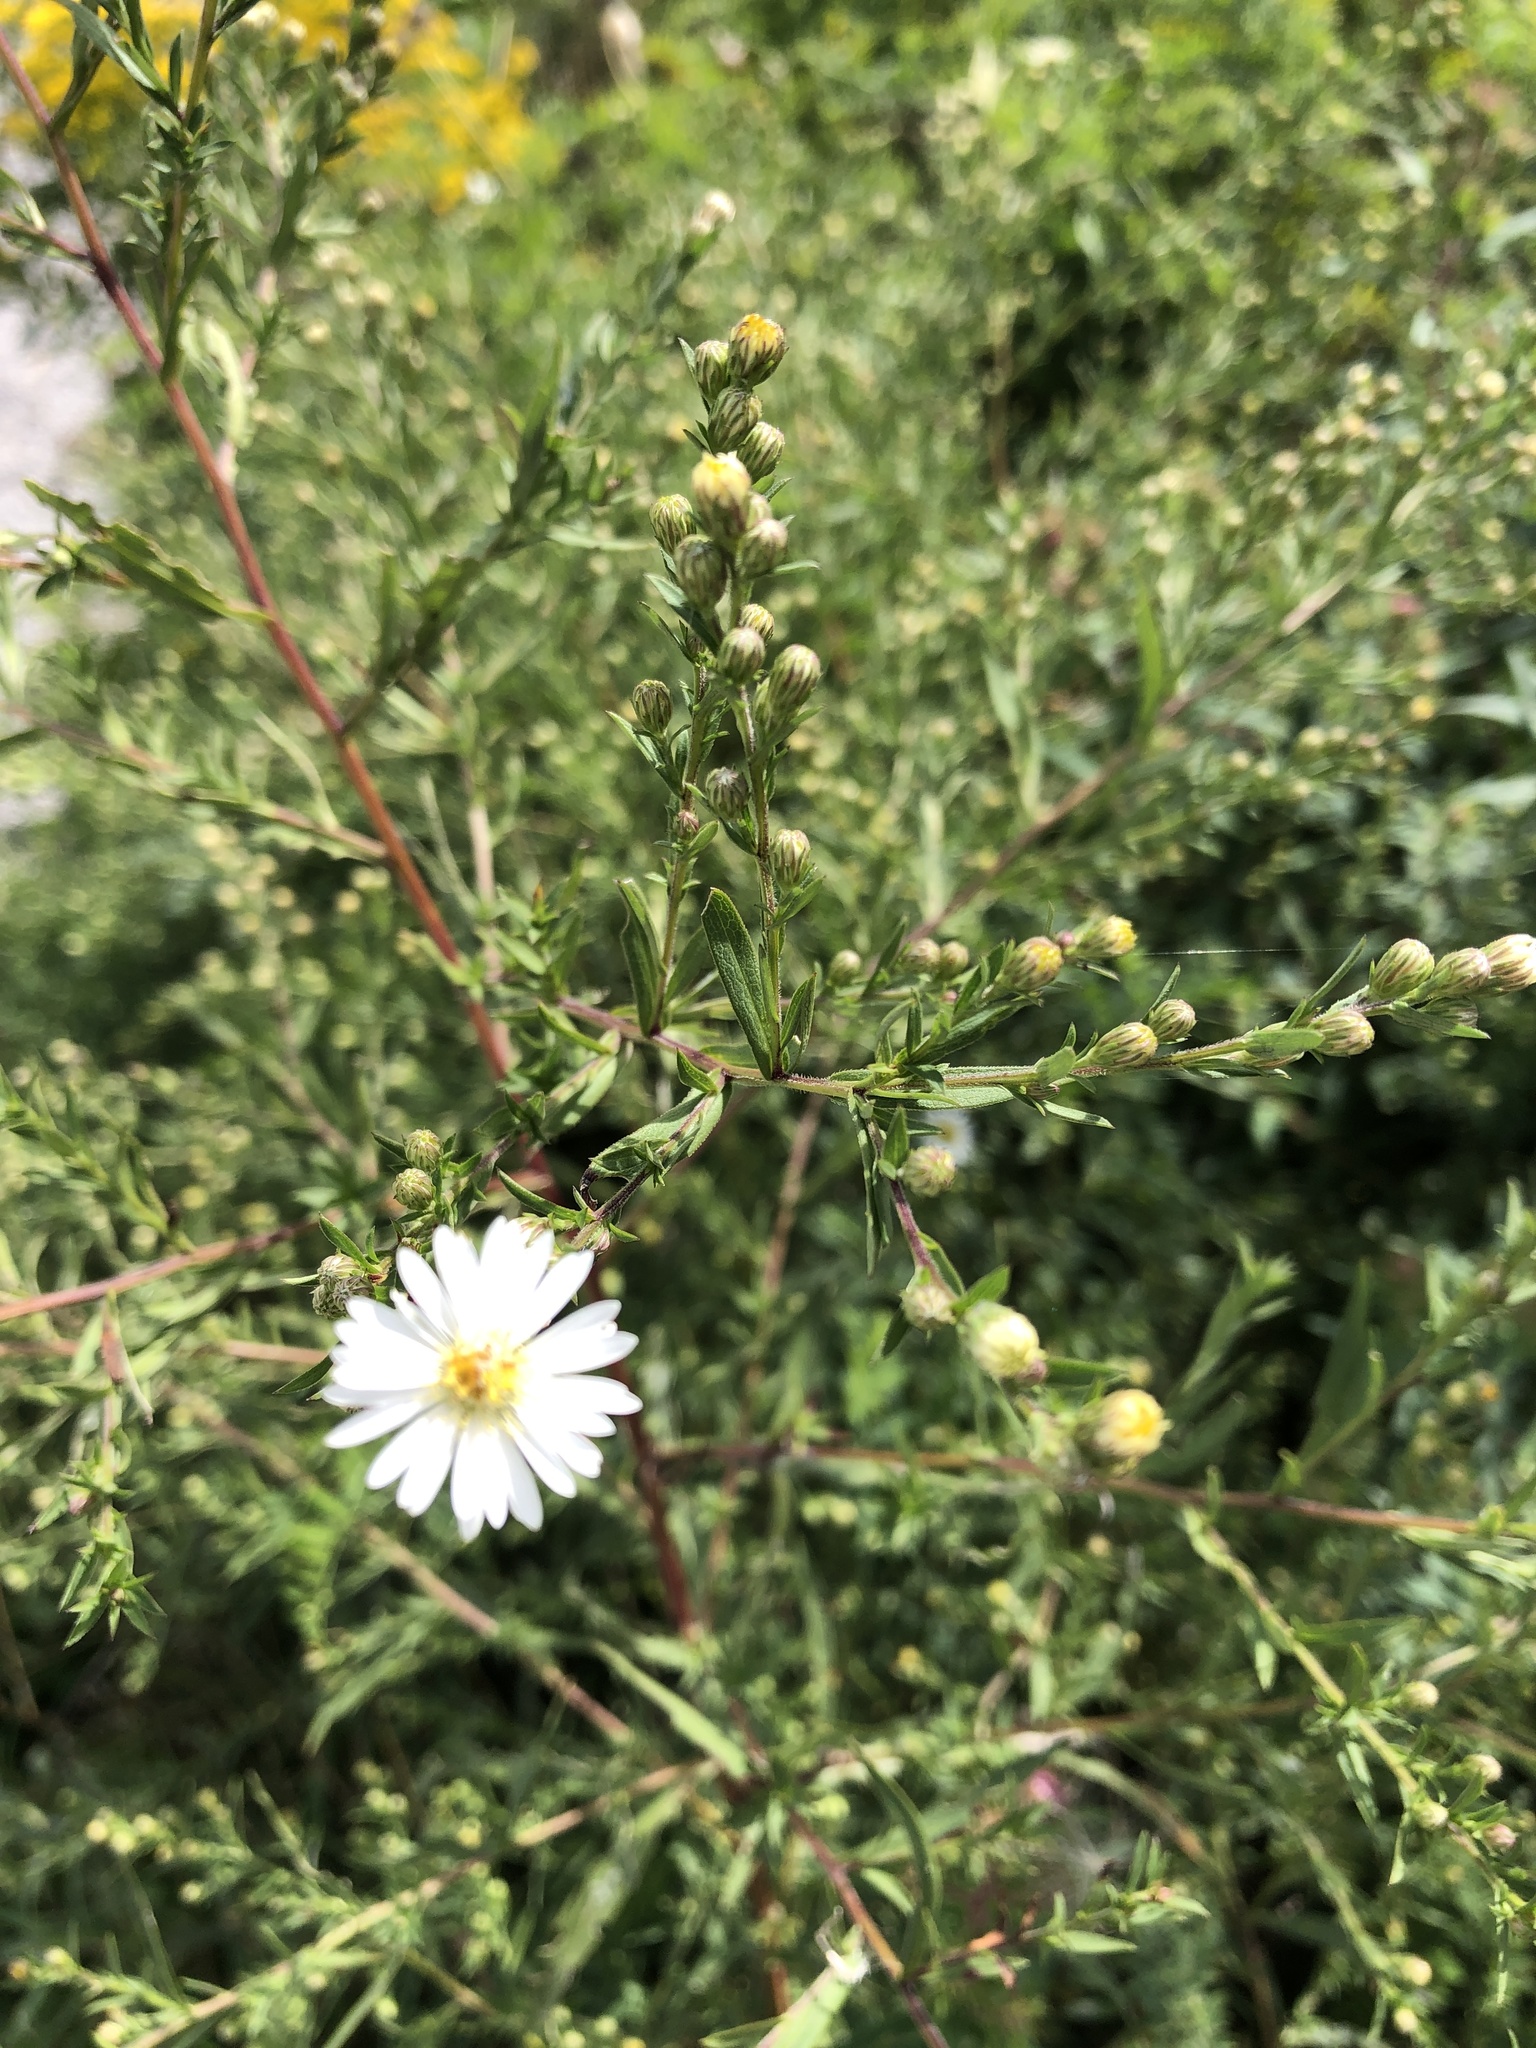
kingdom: Plantae
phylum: Tracheophyta
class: Magnoliopsida
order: Asterales
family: Asteraceae
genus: Symphyotrichum
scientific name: Symphyotrichum lanceolatum
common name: Panicled aster
